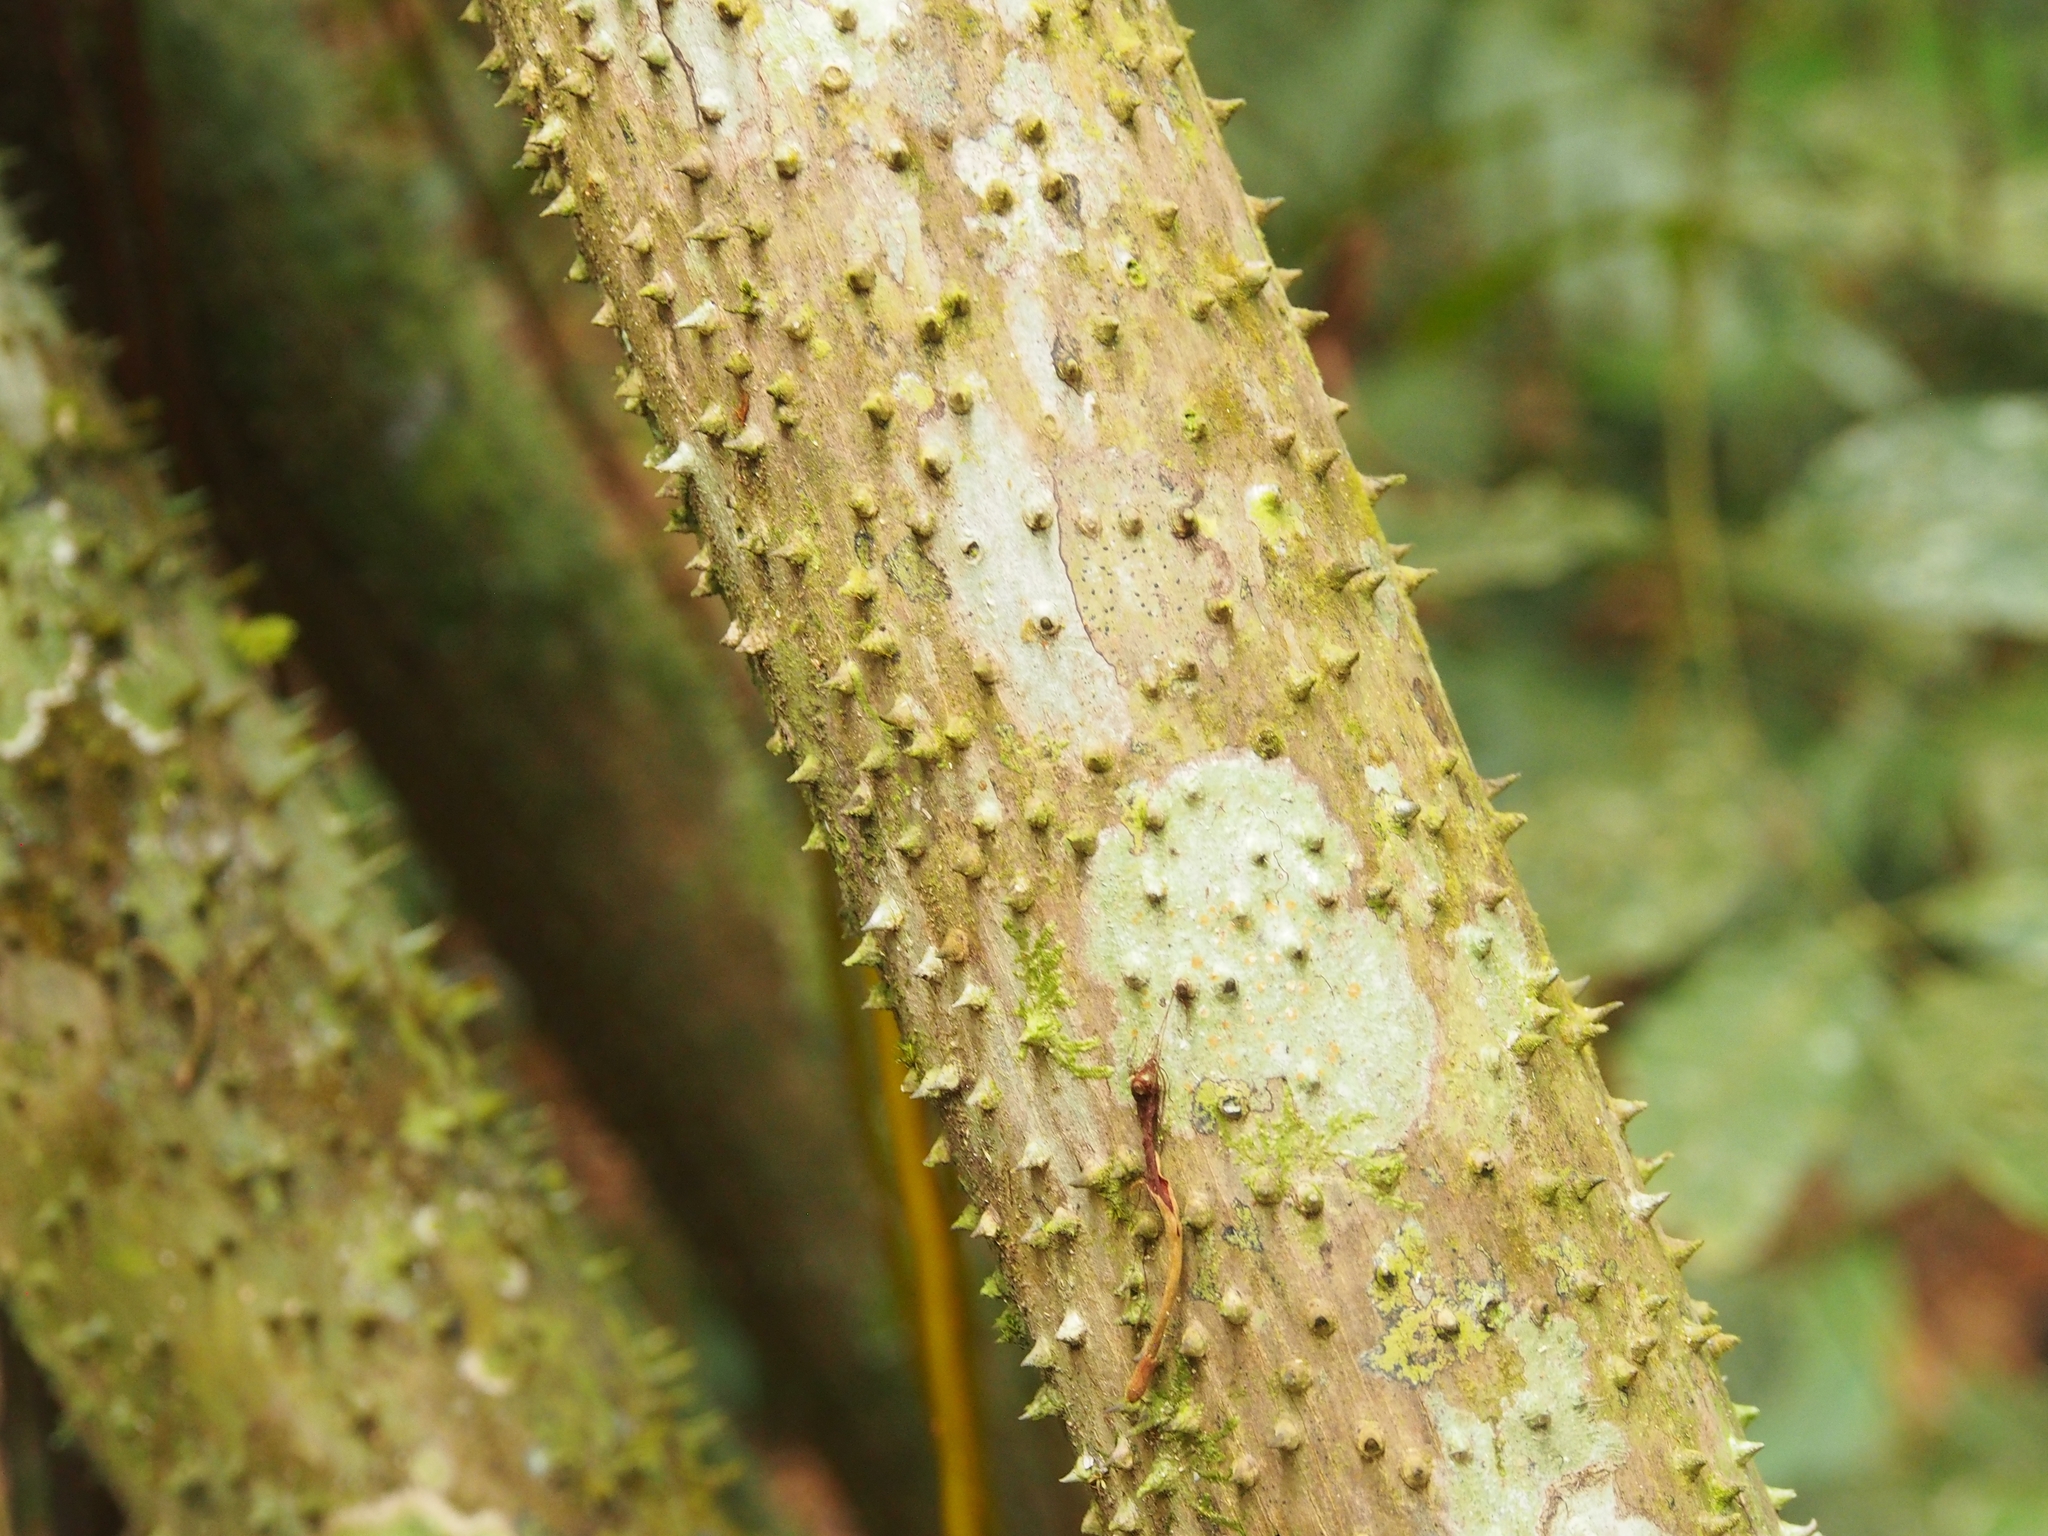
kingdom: Plantae
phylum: Tracheophyta
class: Liliopsida
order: Arecales
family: Arecaceae
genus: Socratea
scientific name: Socratea exorrhiza
